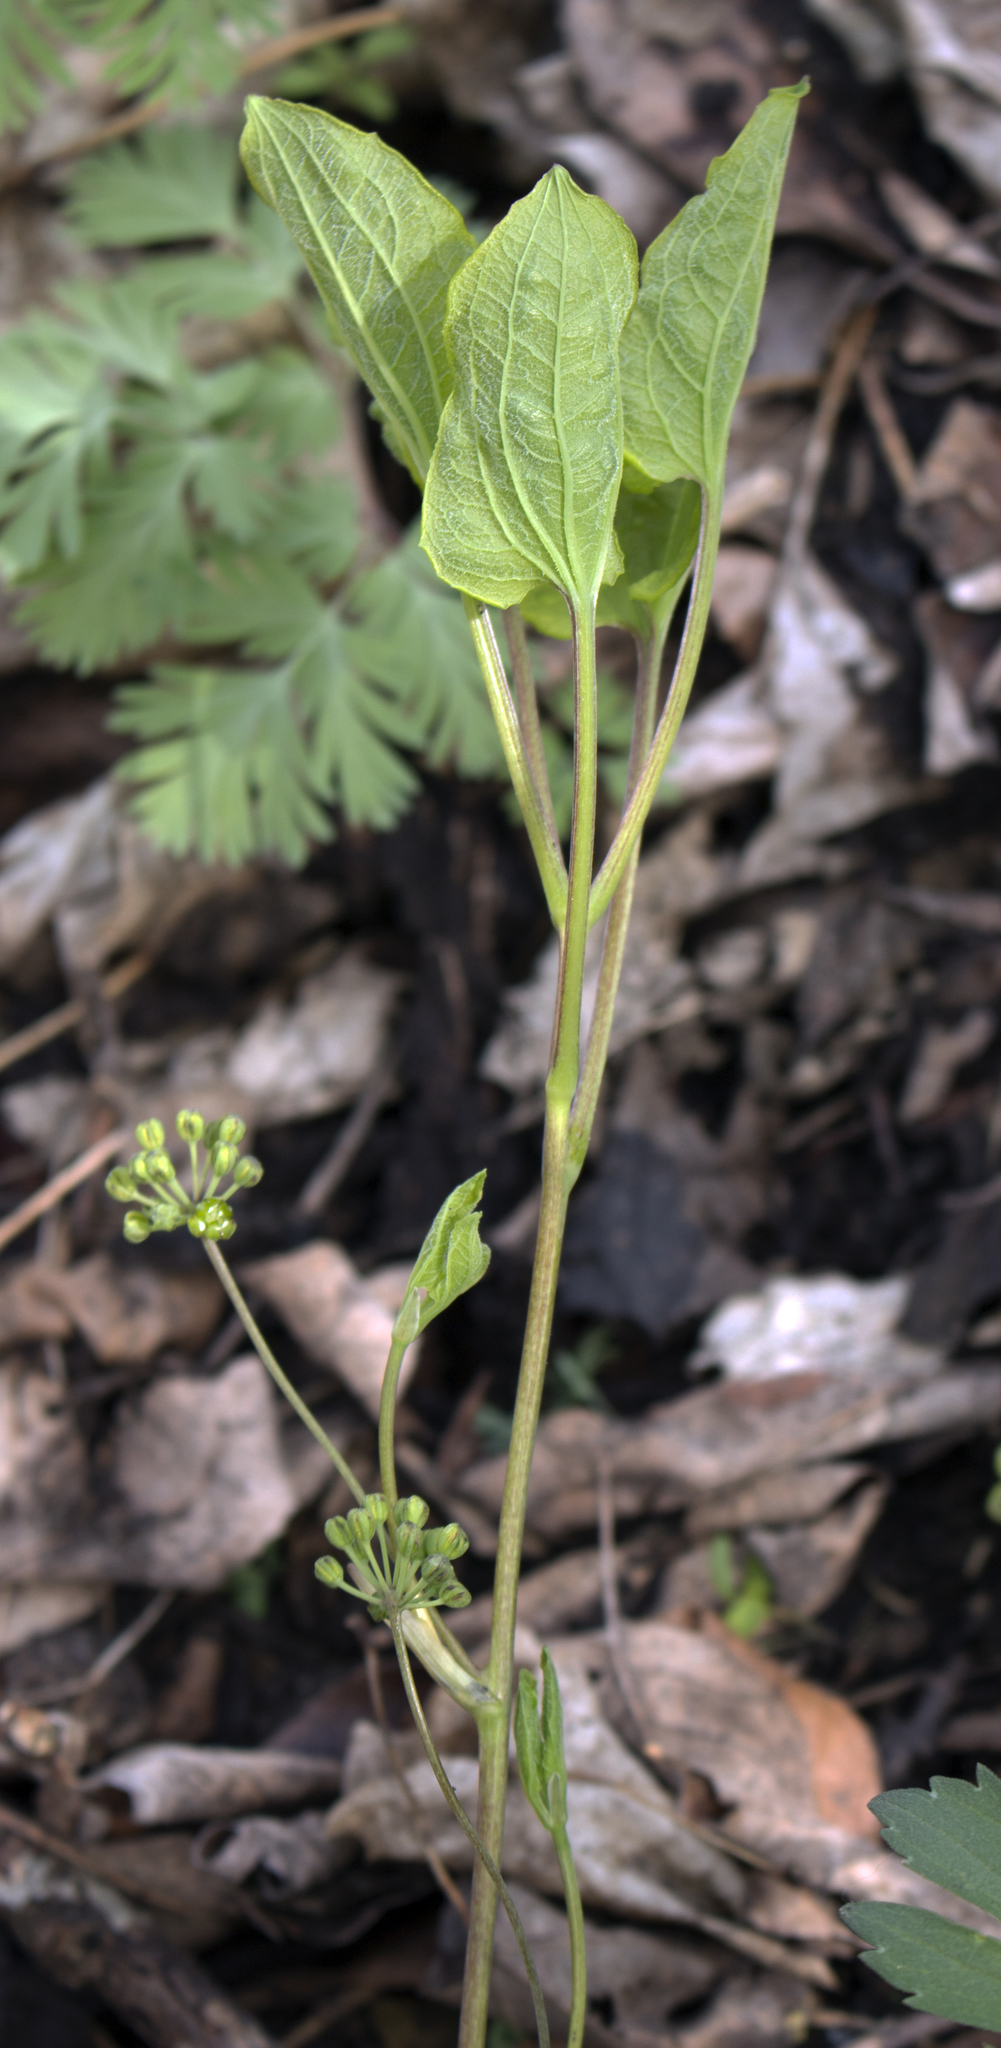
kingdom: Plantae
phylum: Tracheophyta
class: Liliopsida
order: Liliales
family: Smilacaceae
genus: Smilax
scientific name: Smilax ecirrhata
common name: Upright carrionflower
